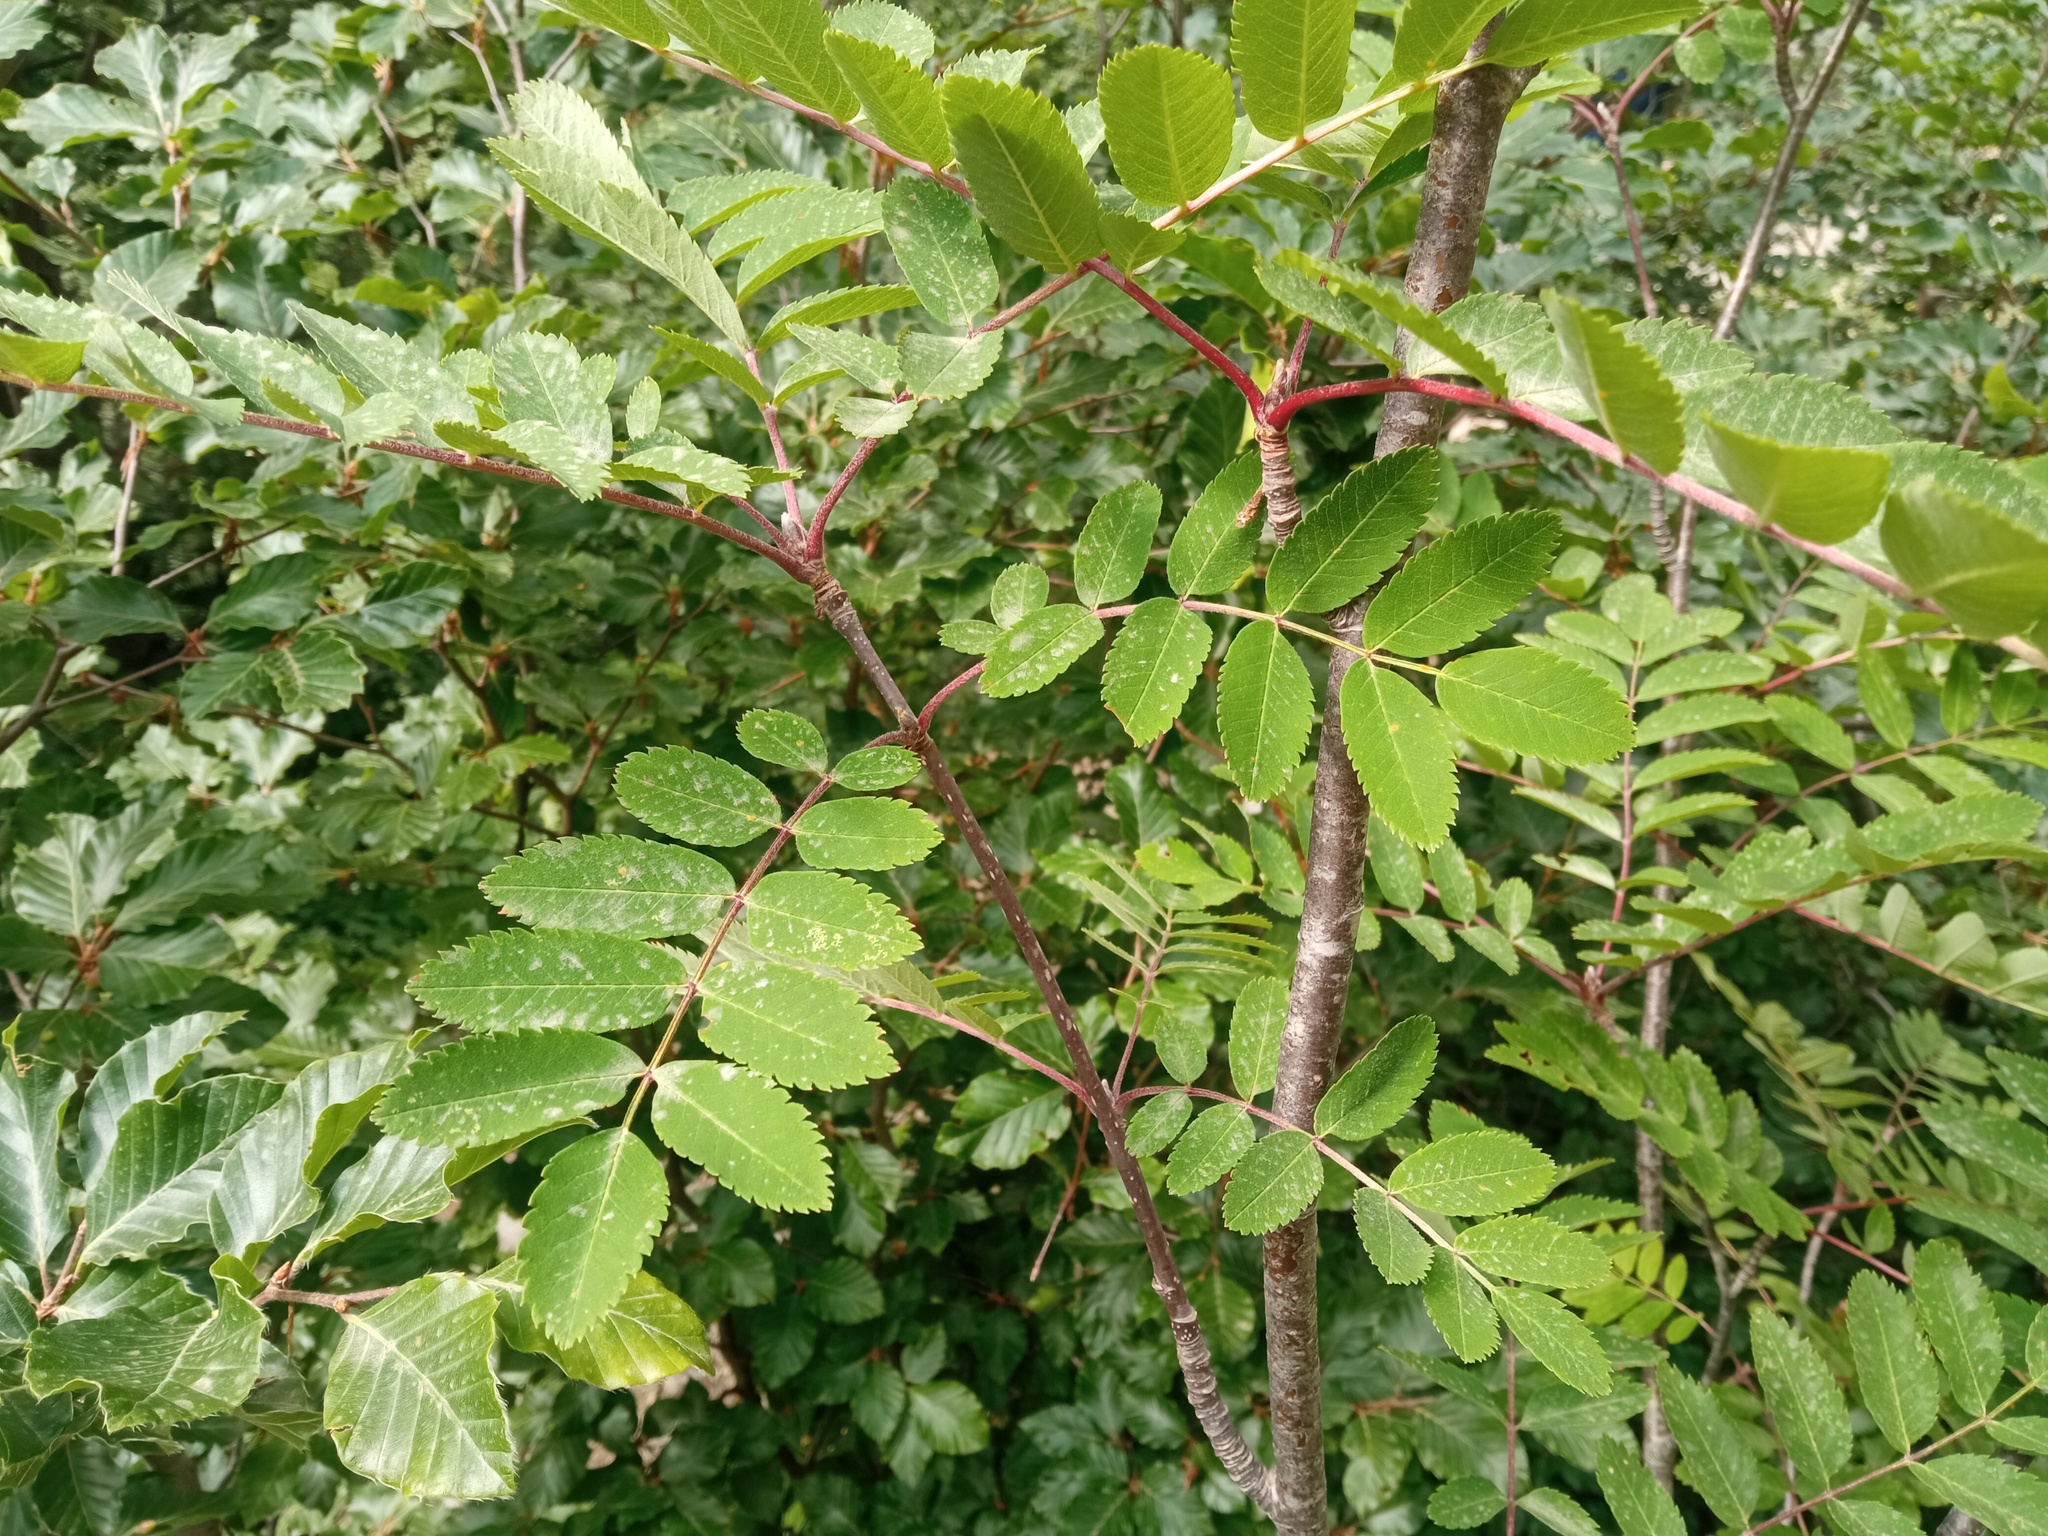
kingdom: Plantae
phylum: Tracheophyta
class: Magnoliopsida
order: Rosales
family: Rosaceae
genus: Sorbus
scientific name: Sorbus aucuparia
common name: Rowan
